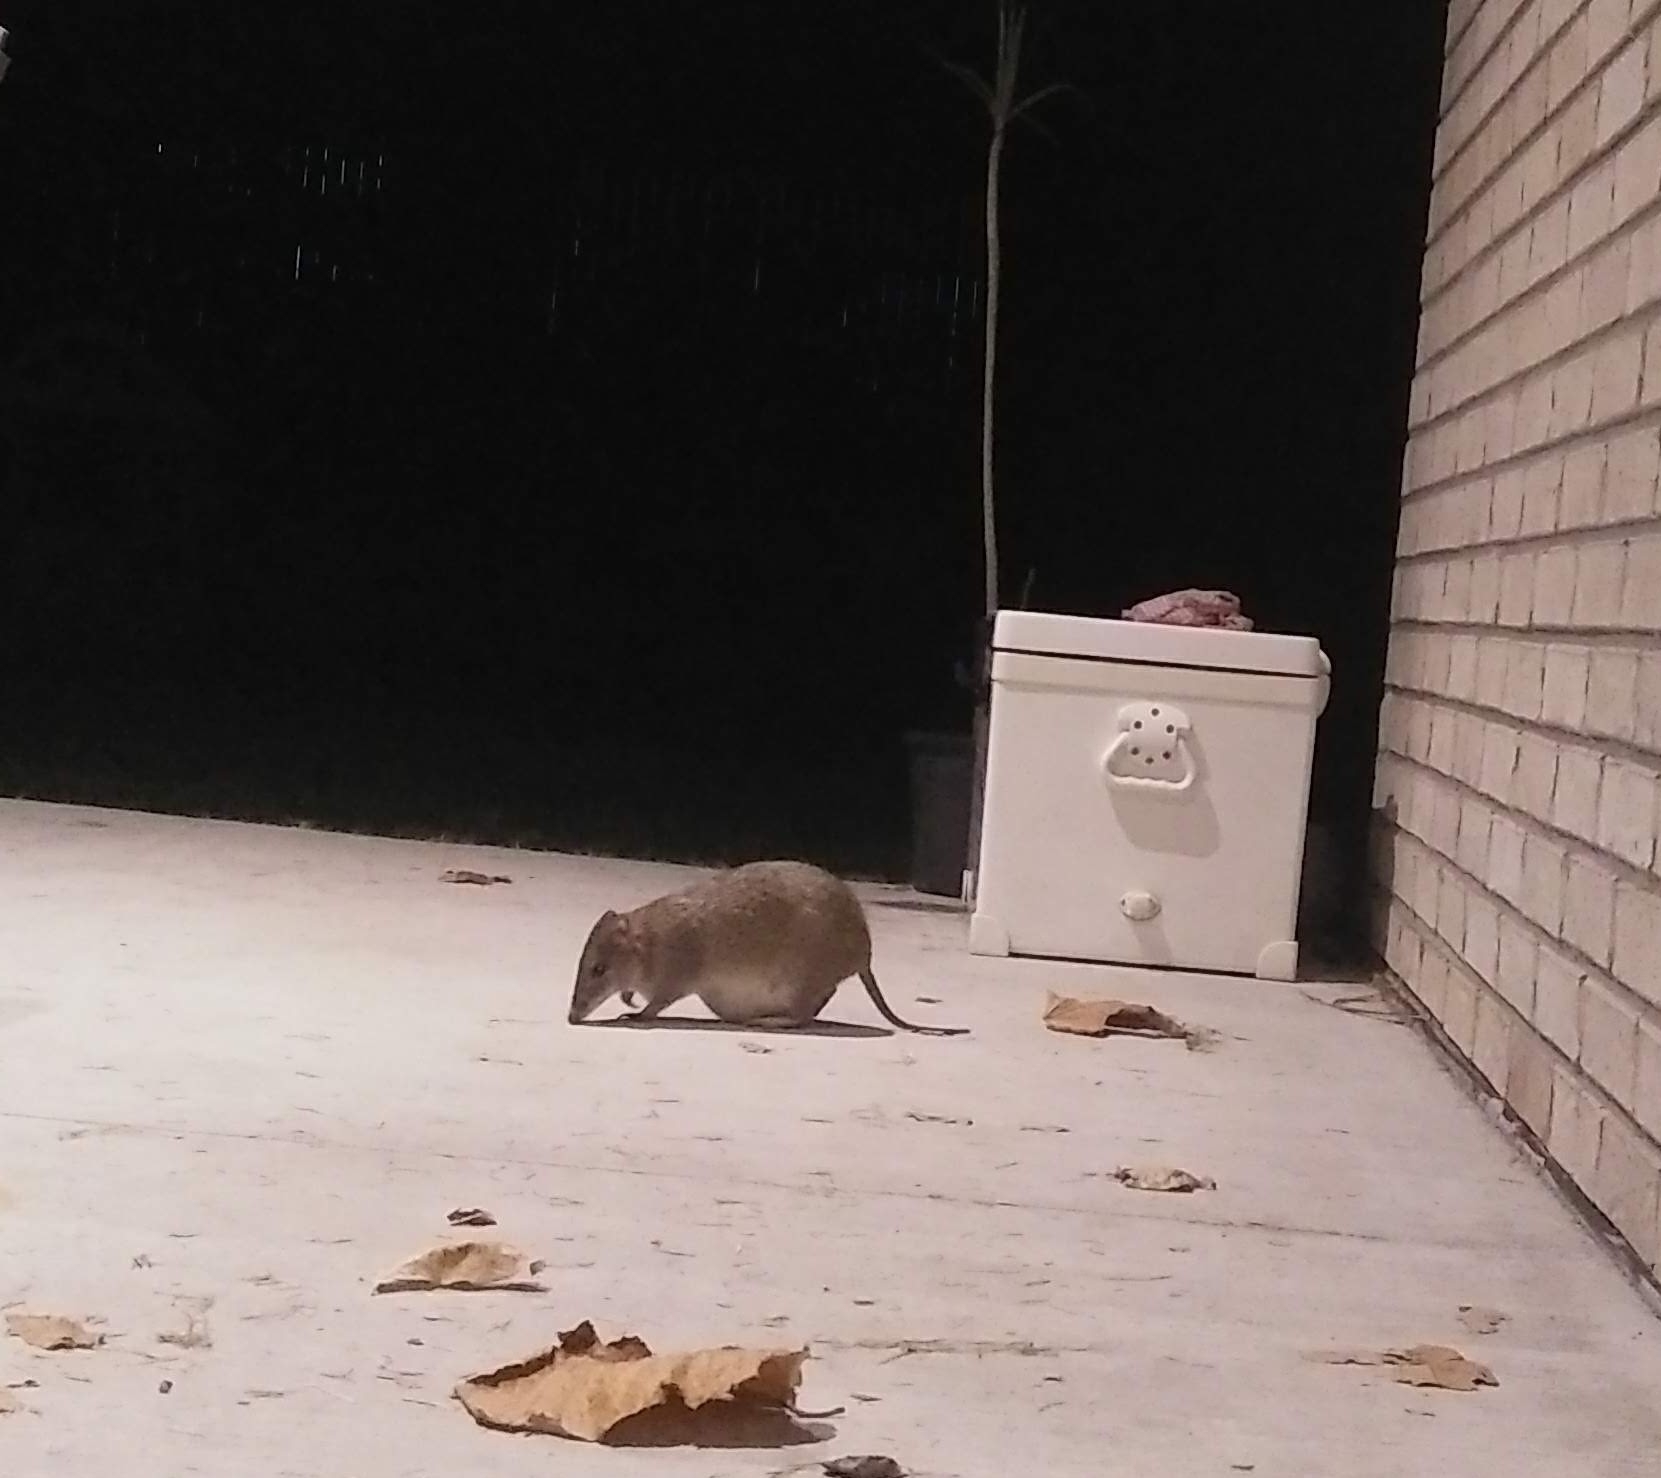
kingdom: Animalia
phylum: Chordata
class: Mammalia
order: Peramelemorphia
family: Peramelidae
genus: Isoodon
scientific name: Isoodon macrourus
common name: Northern brown bandicoot
